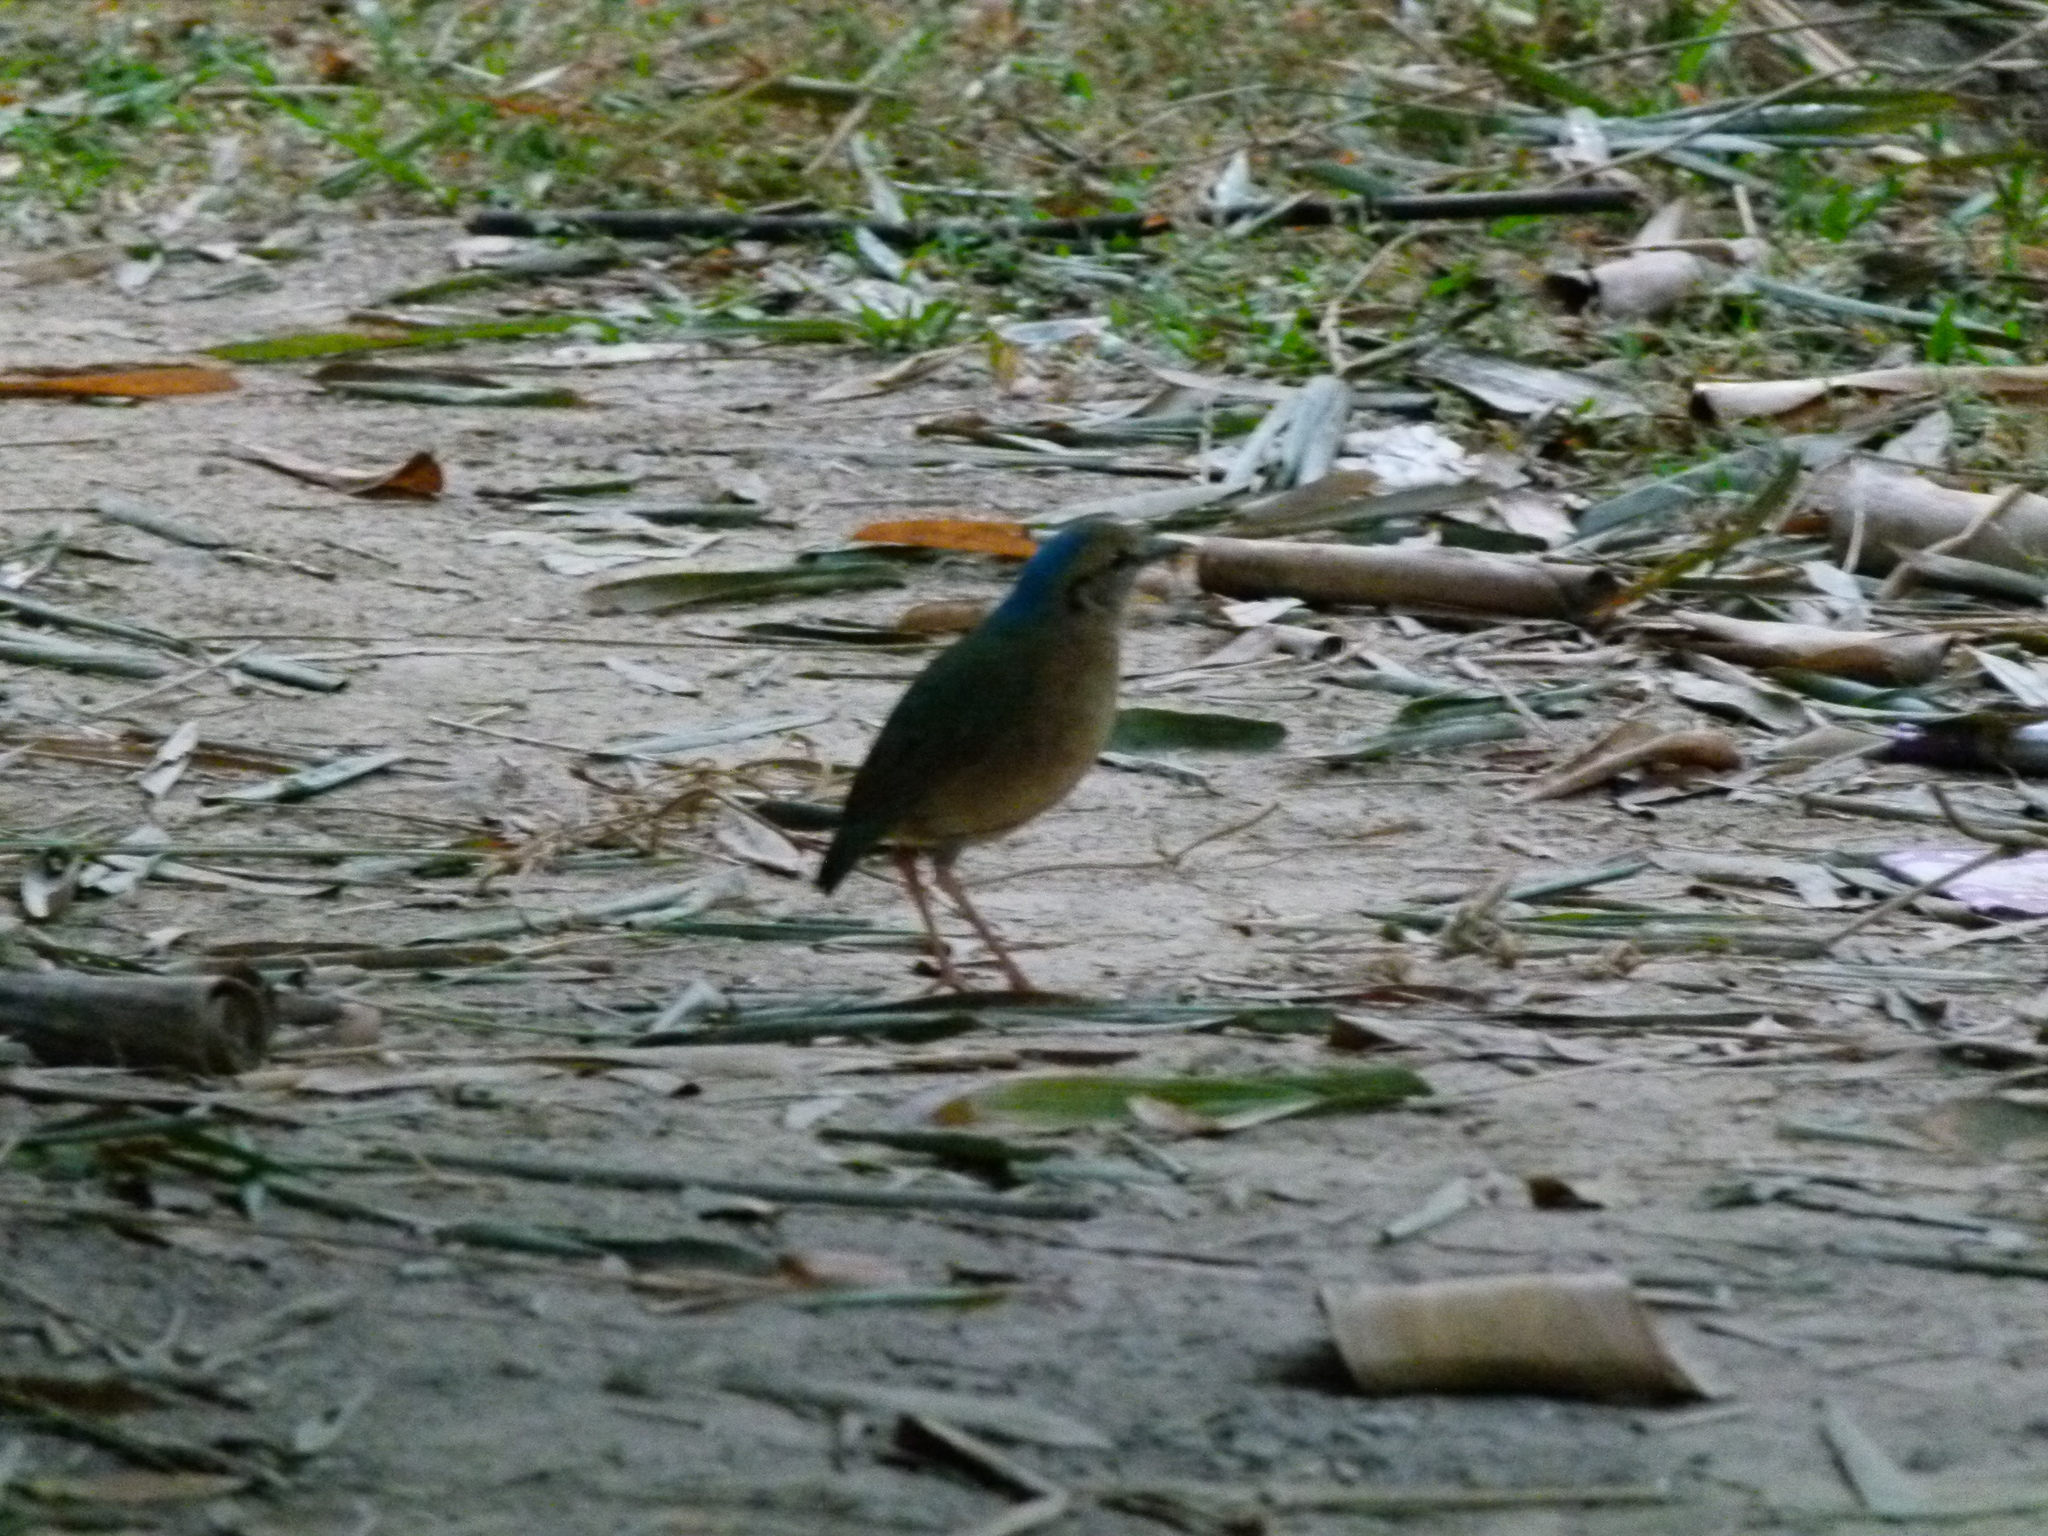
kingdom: Animalia
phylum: Chordata
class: Aves
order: Passeriformes
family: Pittidae
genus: Pitta
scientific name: Pitta nipalensis
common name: Blue-naped pitta
